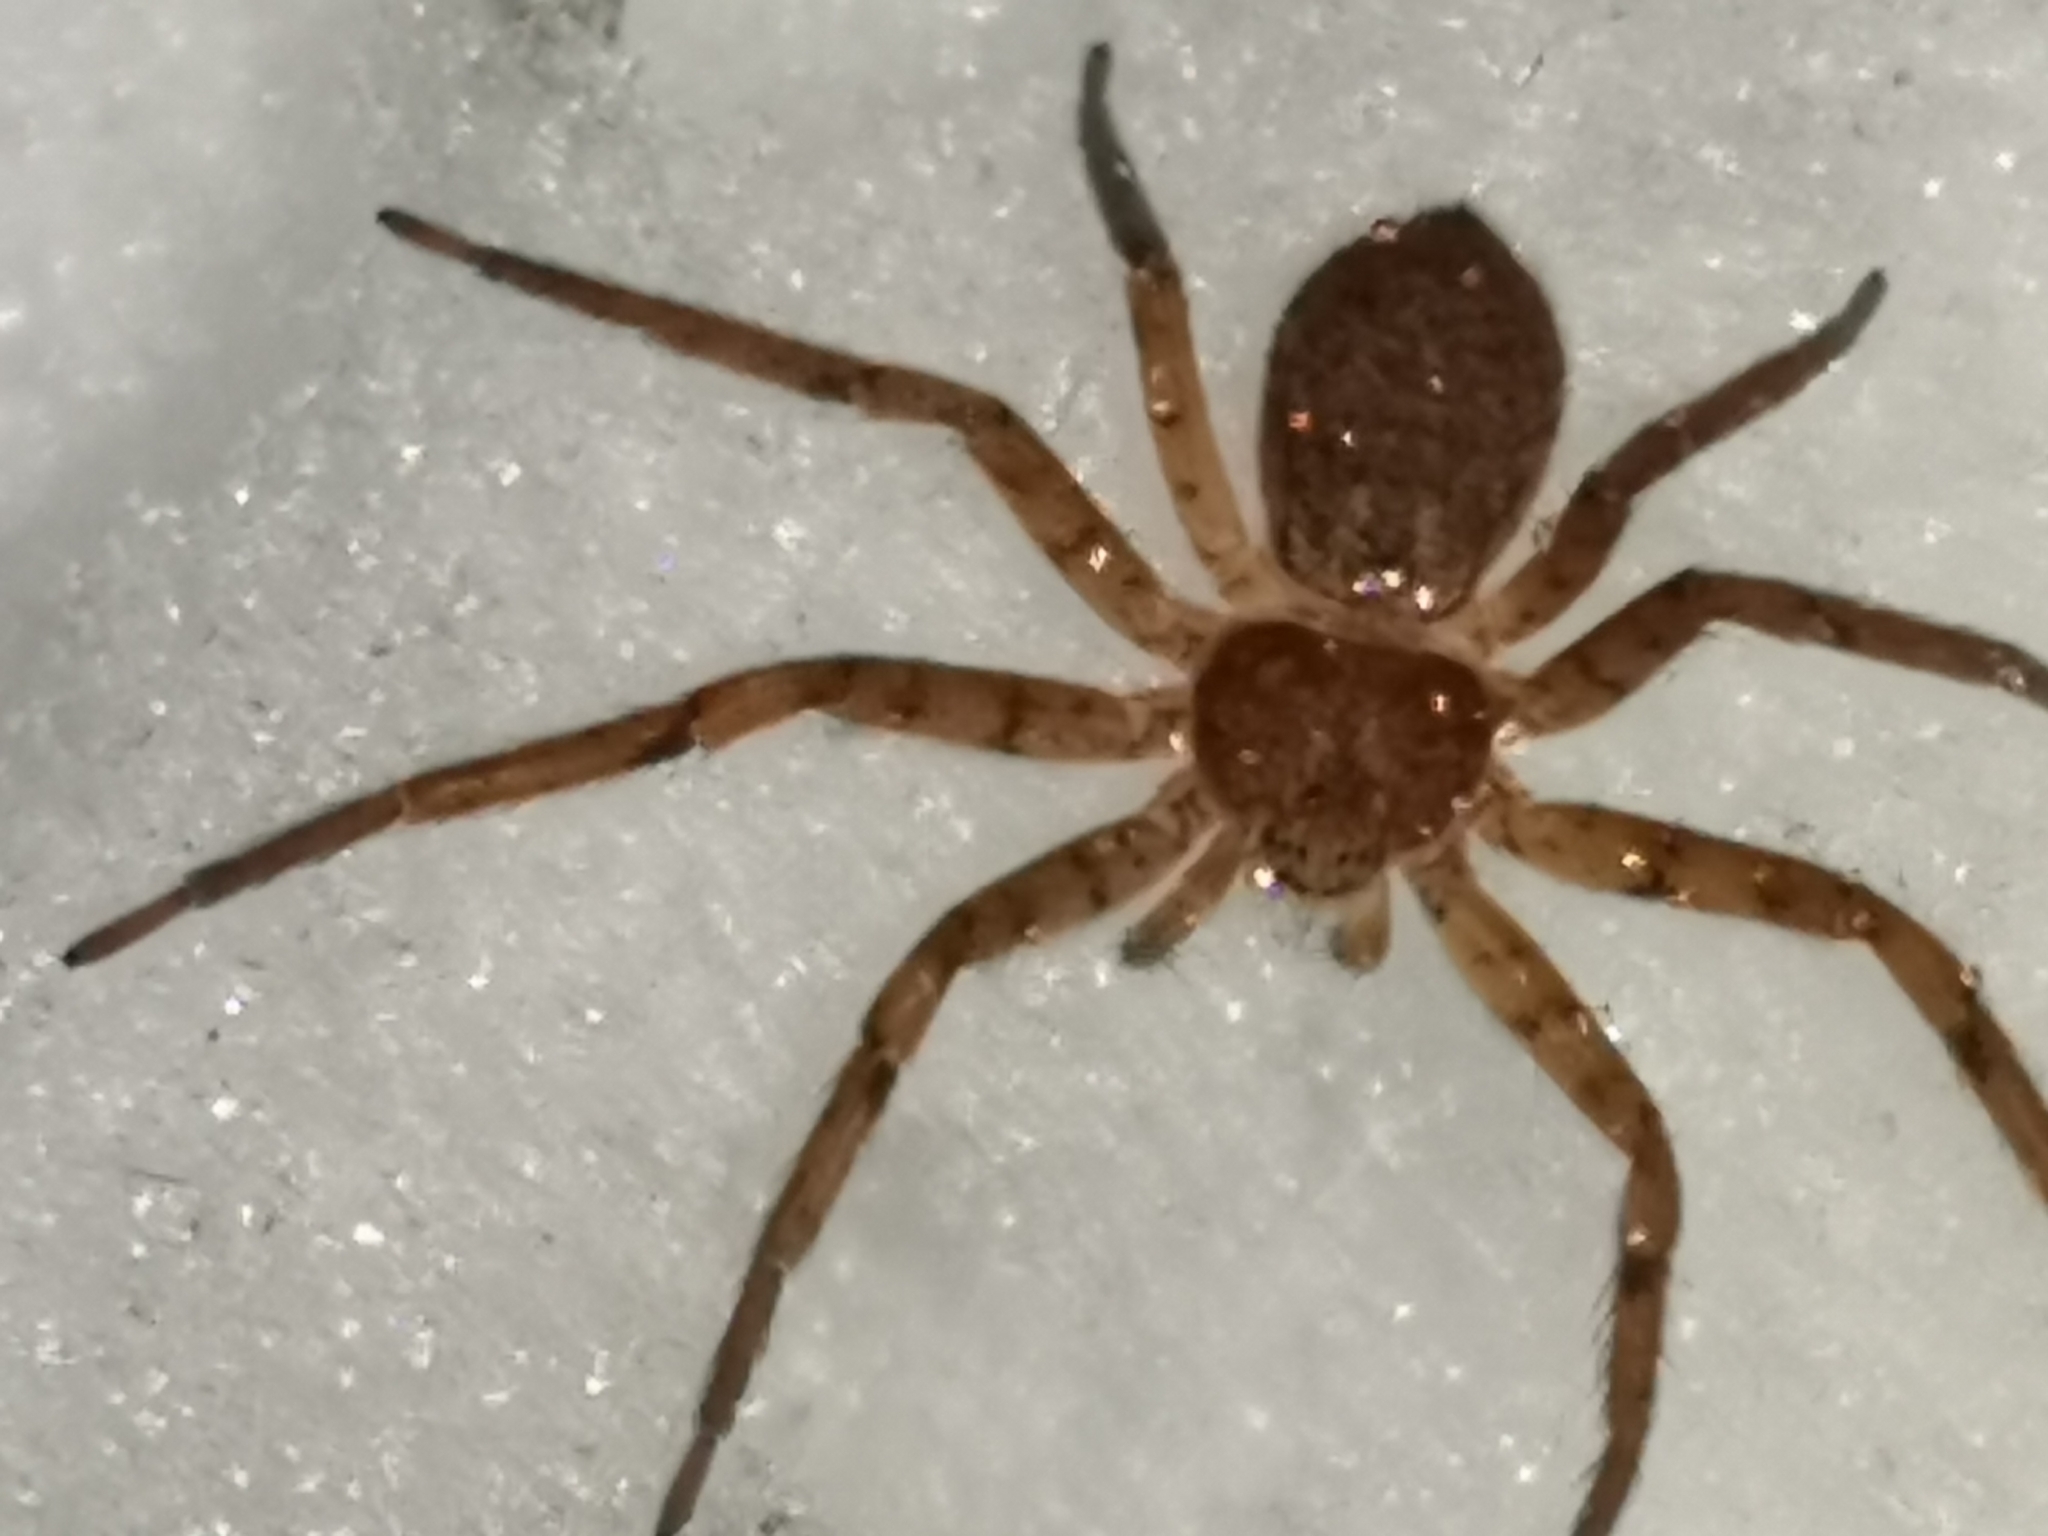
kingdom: Animalia
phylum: Arthropoda
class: Arachnida
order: Araneae
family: Philodromidae
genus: Philodromus
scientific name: Philodromus fuscomarginatus
